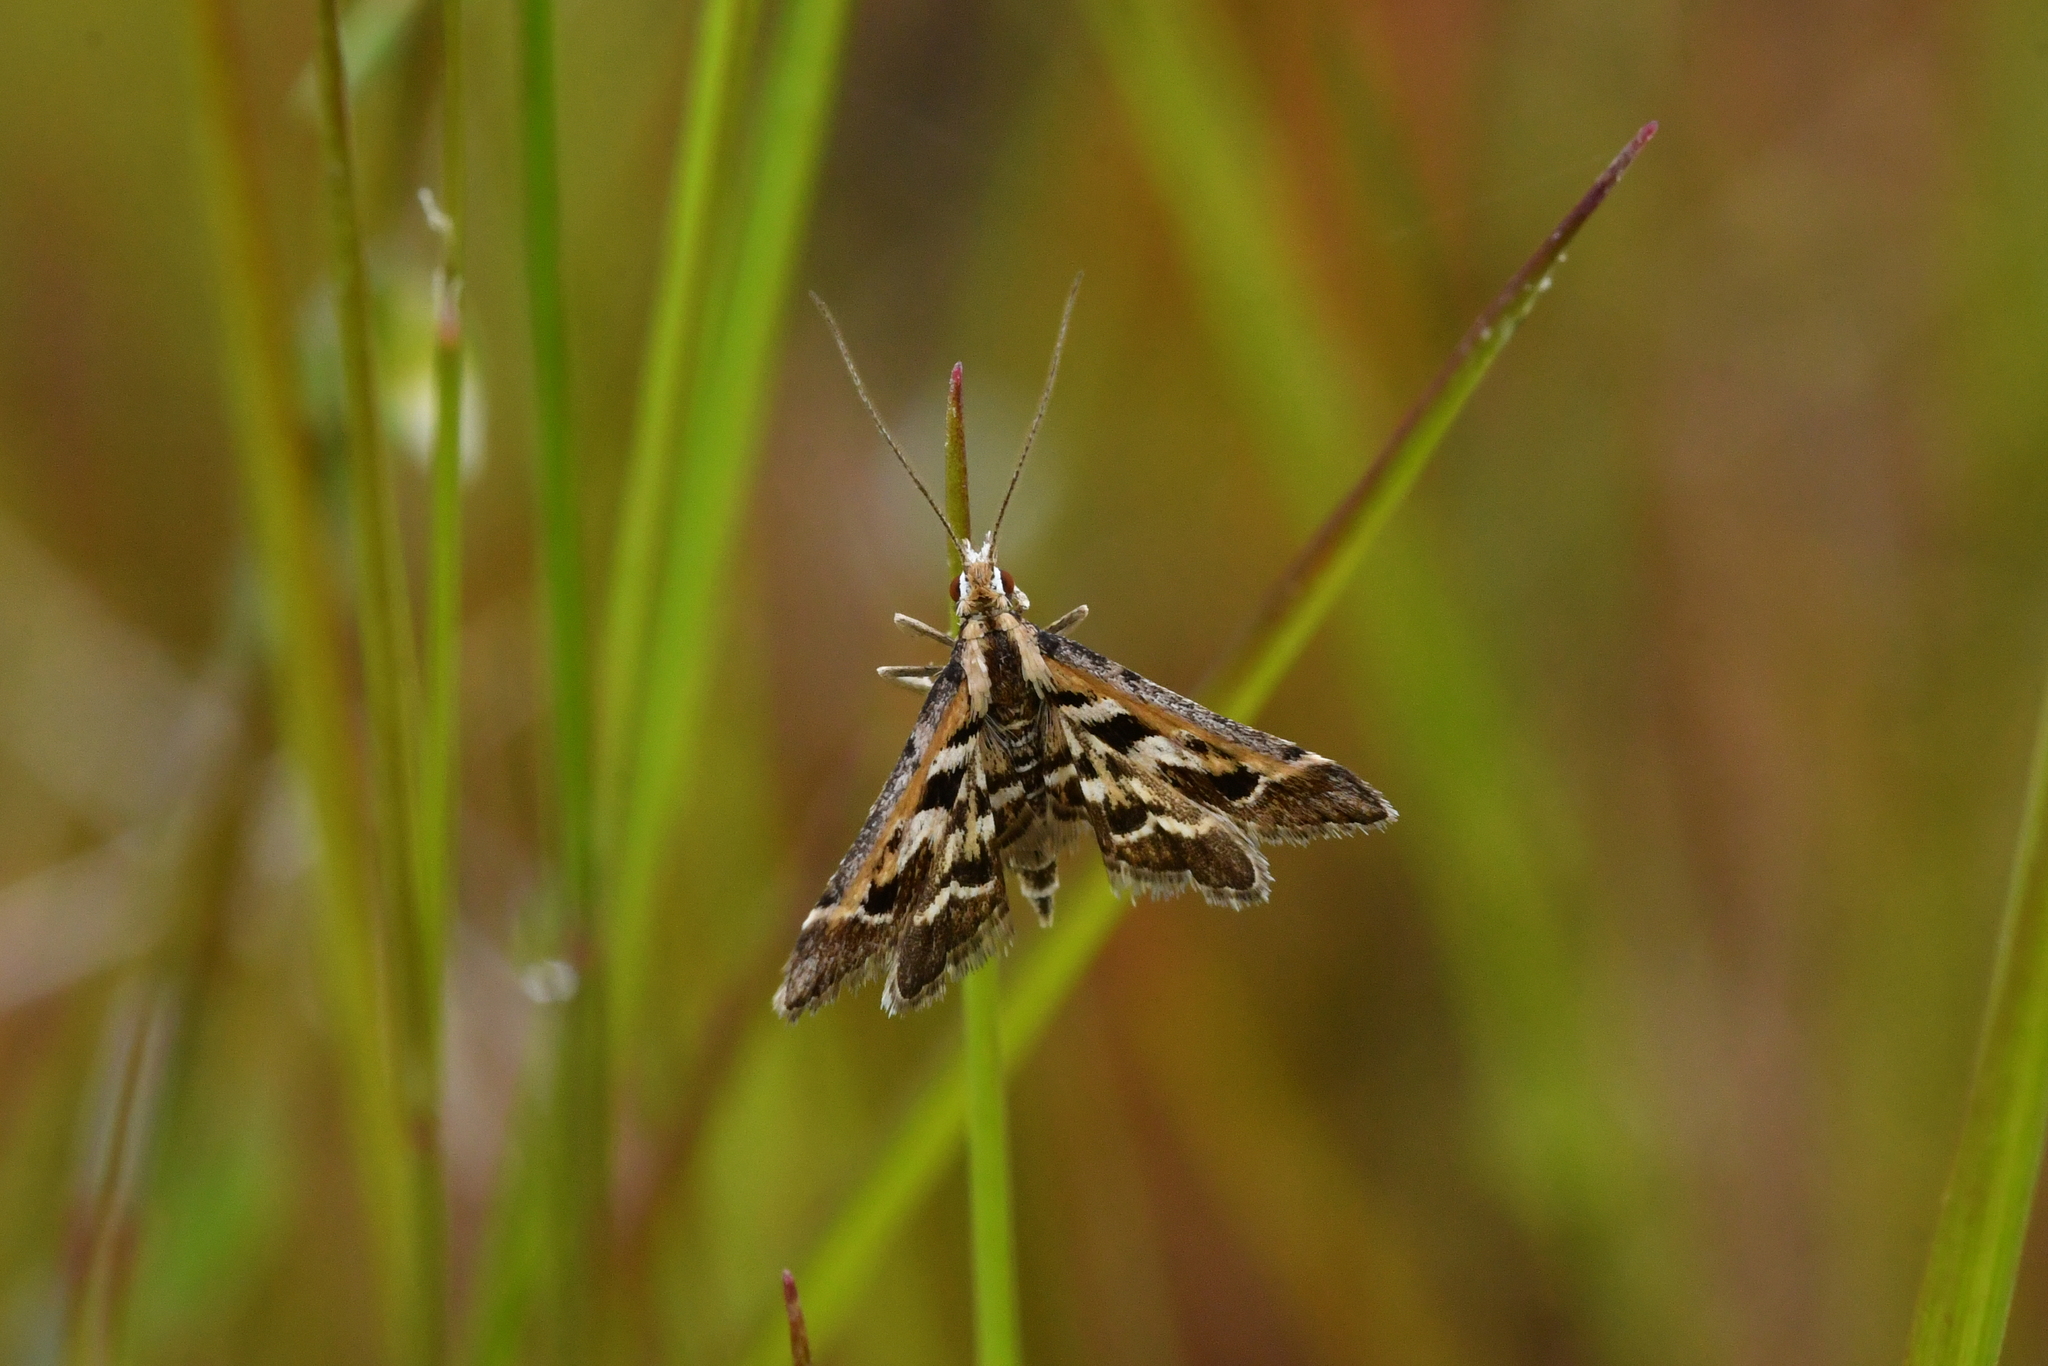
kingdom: Animalia
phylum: Arthropoda
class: Insecta
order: Lepidoptera
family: Crambidae
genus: Diasemia
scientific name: Diasemia grammalis
